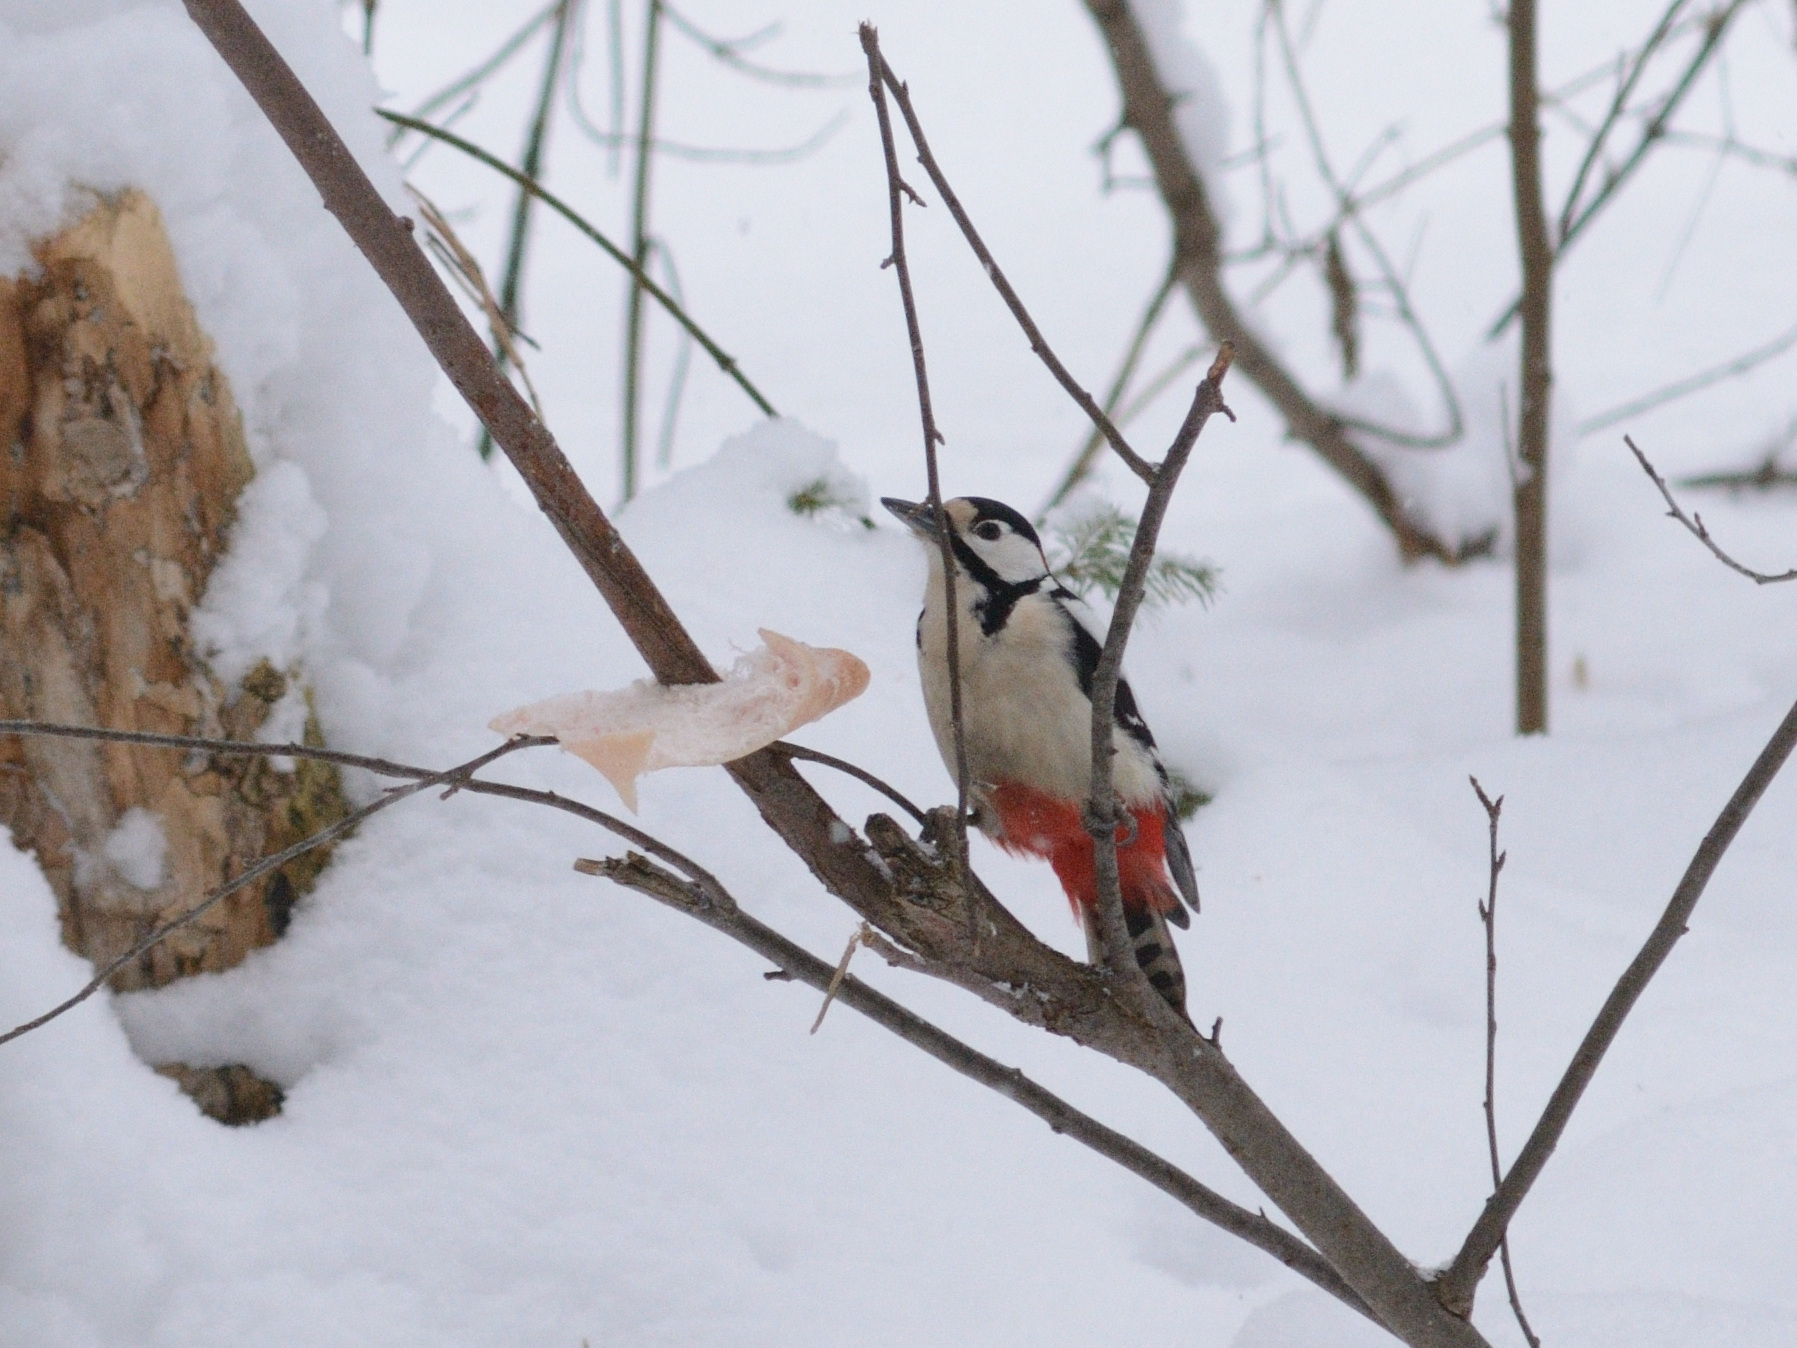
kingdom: Animalia
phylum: Chordata
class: Aves
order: Piciformes
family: Picidae
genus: Dendrocopos
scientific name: Dendrocopos major
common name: Great spotted woodpecker
